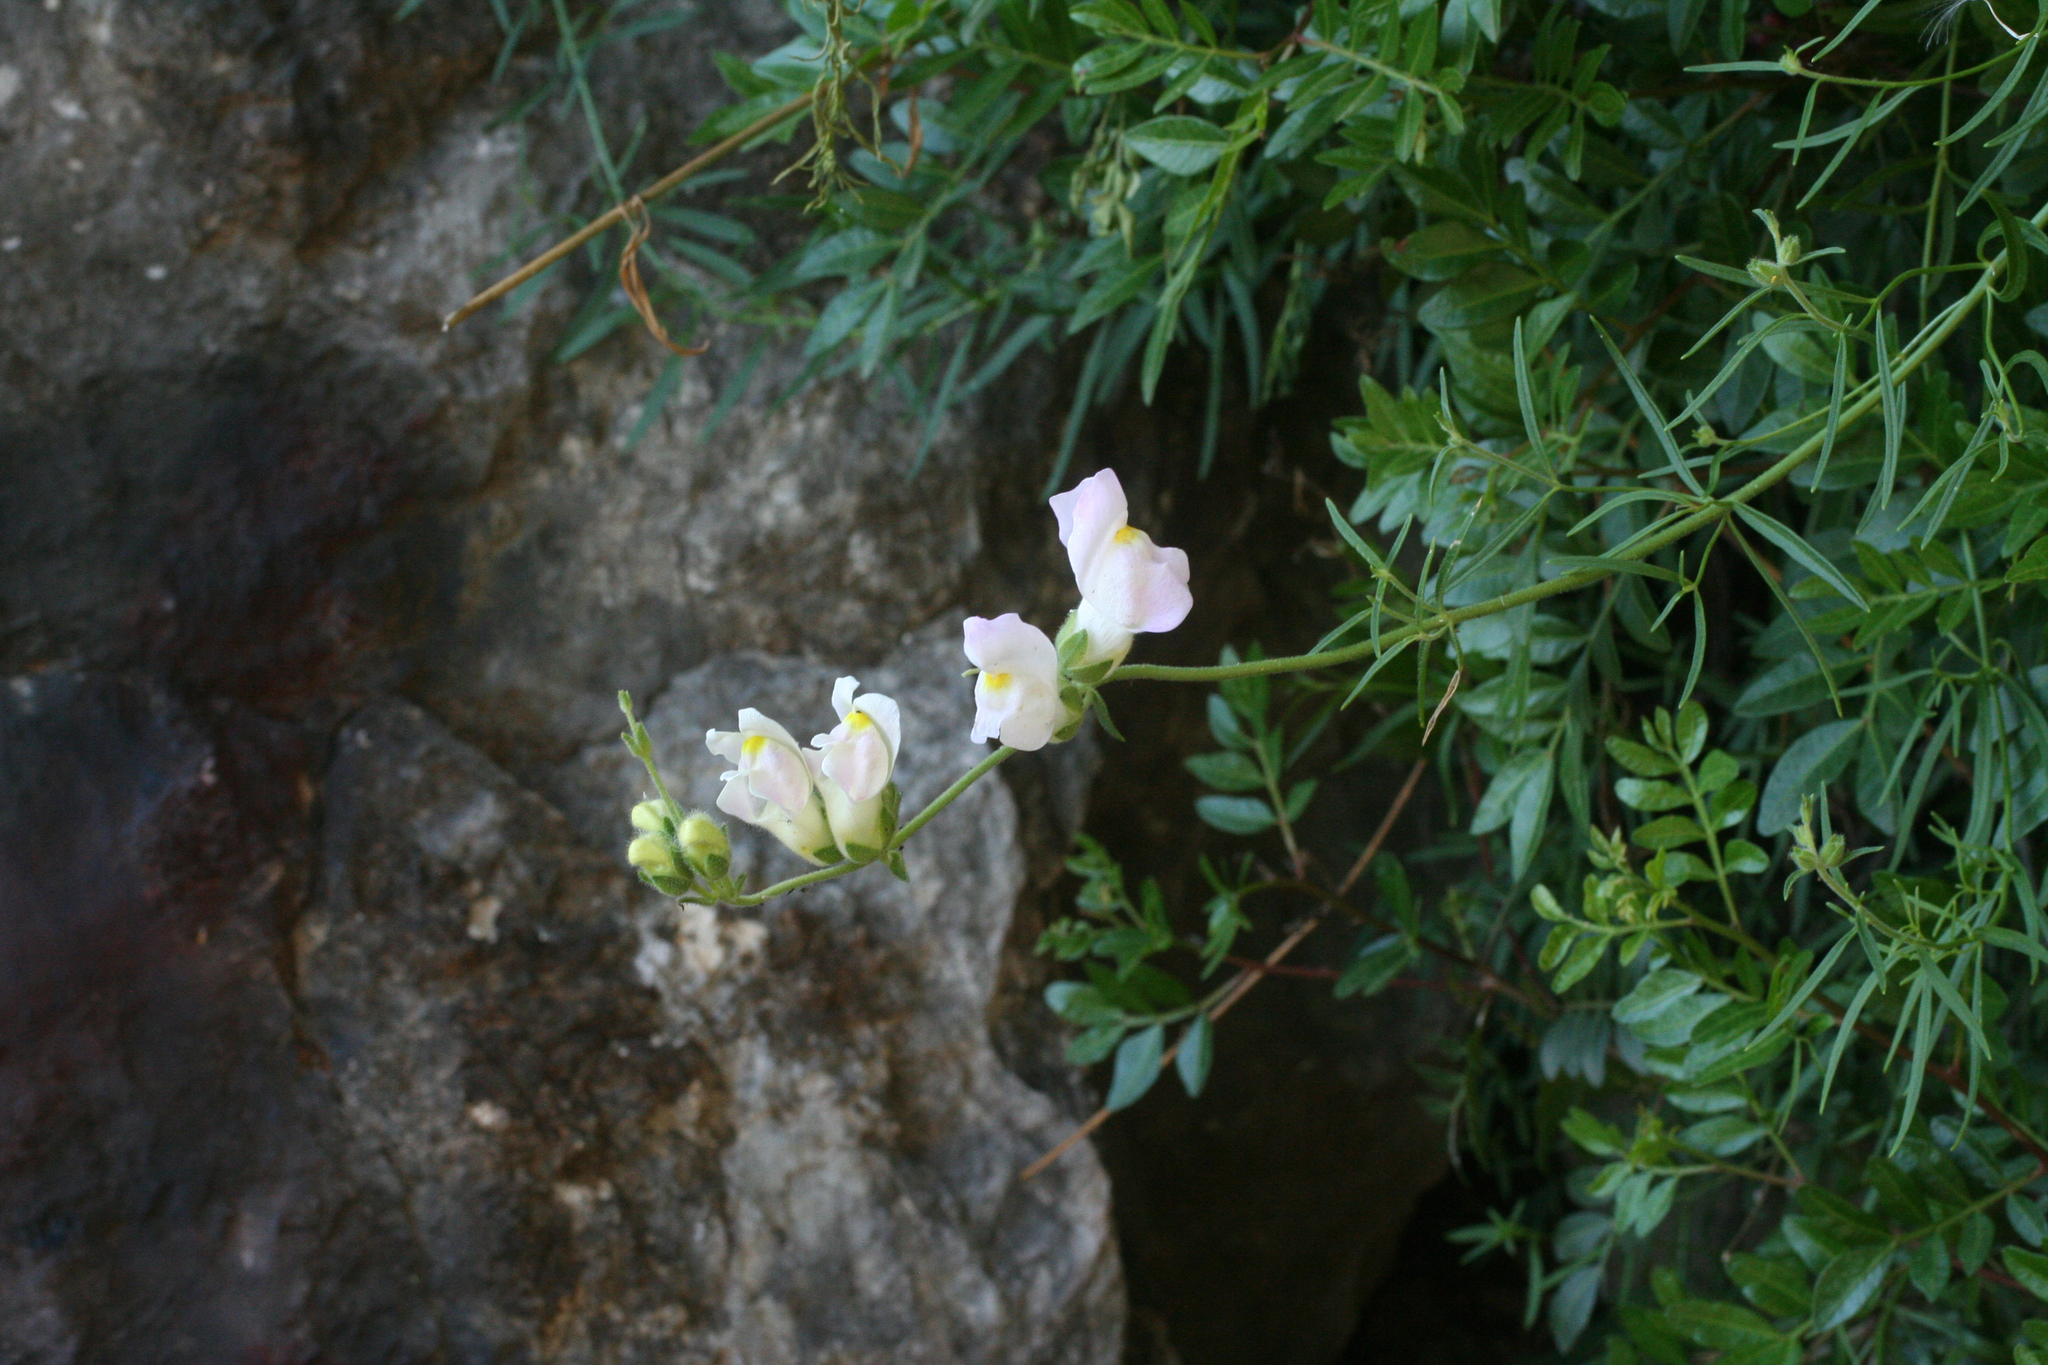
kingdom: Plantae
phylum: Tracheophyta
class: Magnoliopsida
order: Lamiales
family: Plantaginaceae
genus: Antirrhinum
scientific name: Antirrhinum tortuosum
